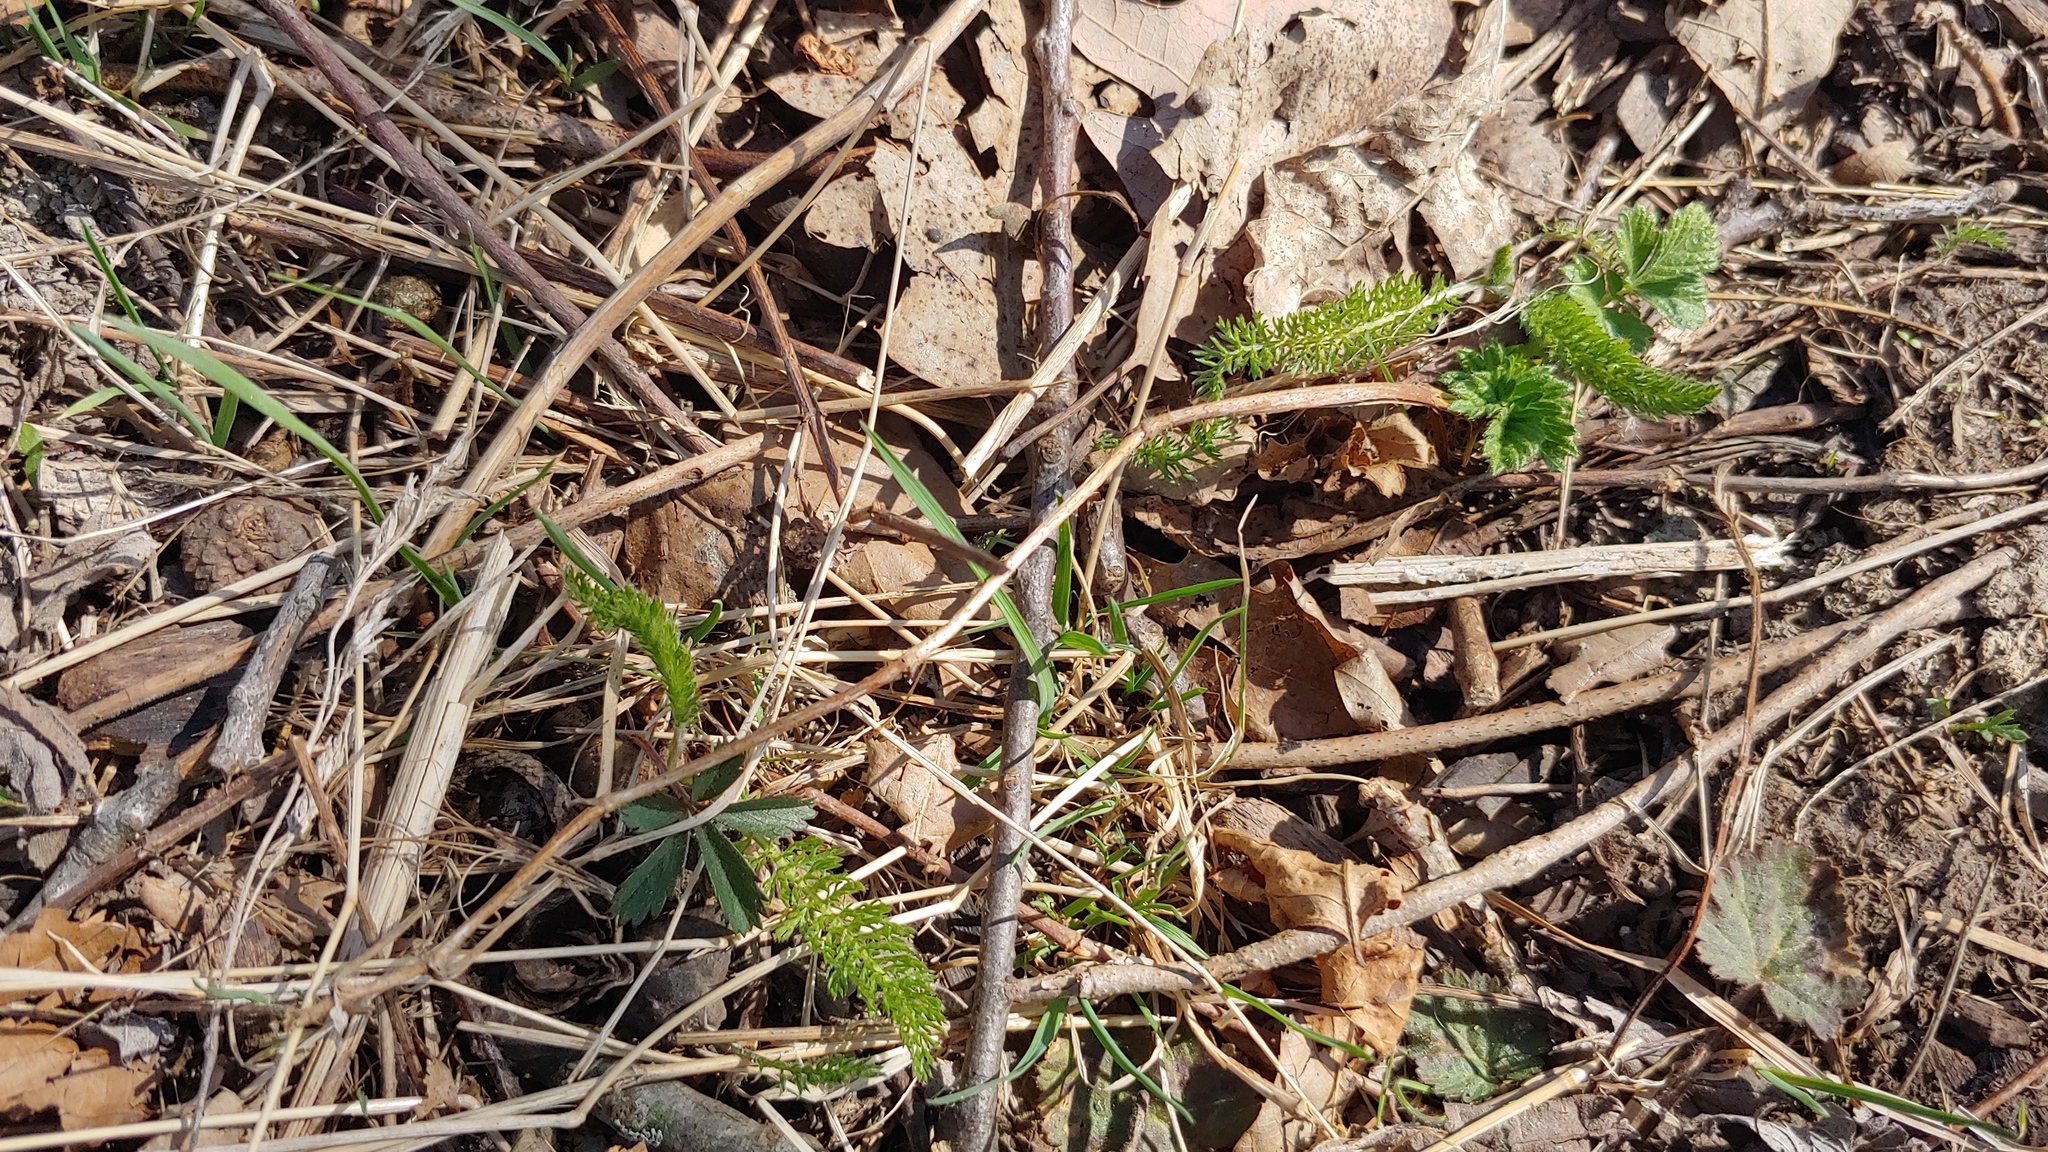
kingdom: Plantae
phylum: Tracheophyta
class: Magnoliopsida
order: Asterales
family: Asteraceae
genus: Achillea
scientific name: Achillea millefolium
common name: Yarrow
